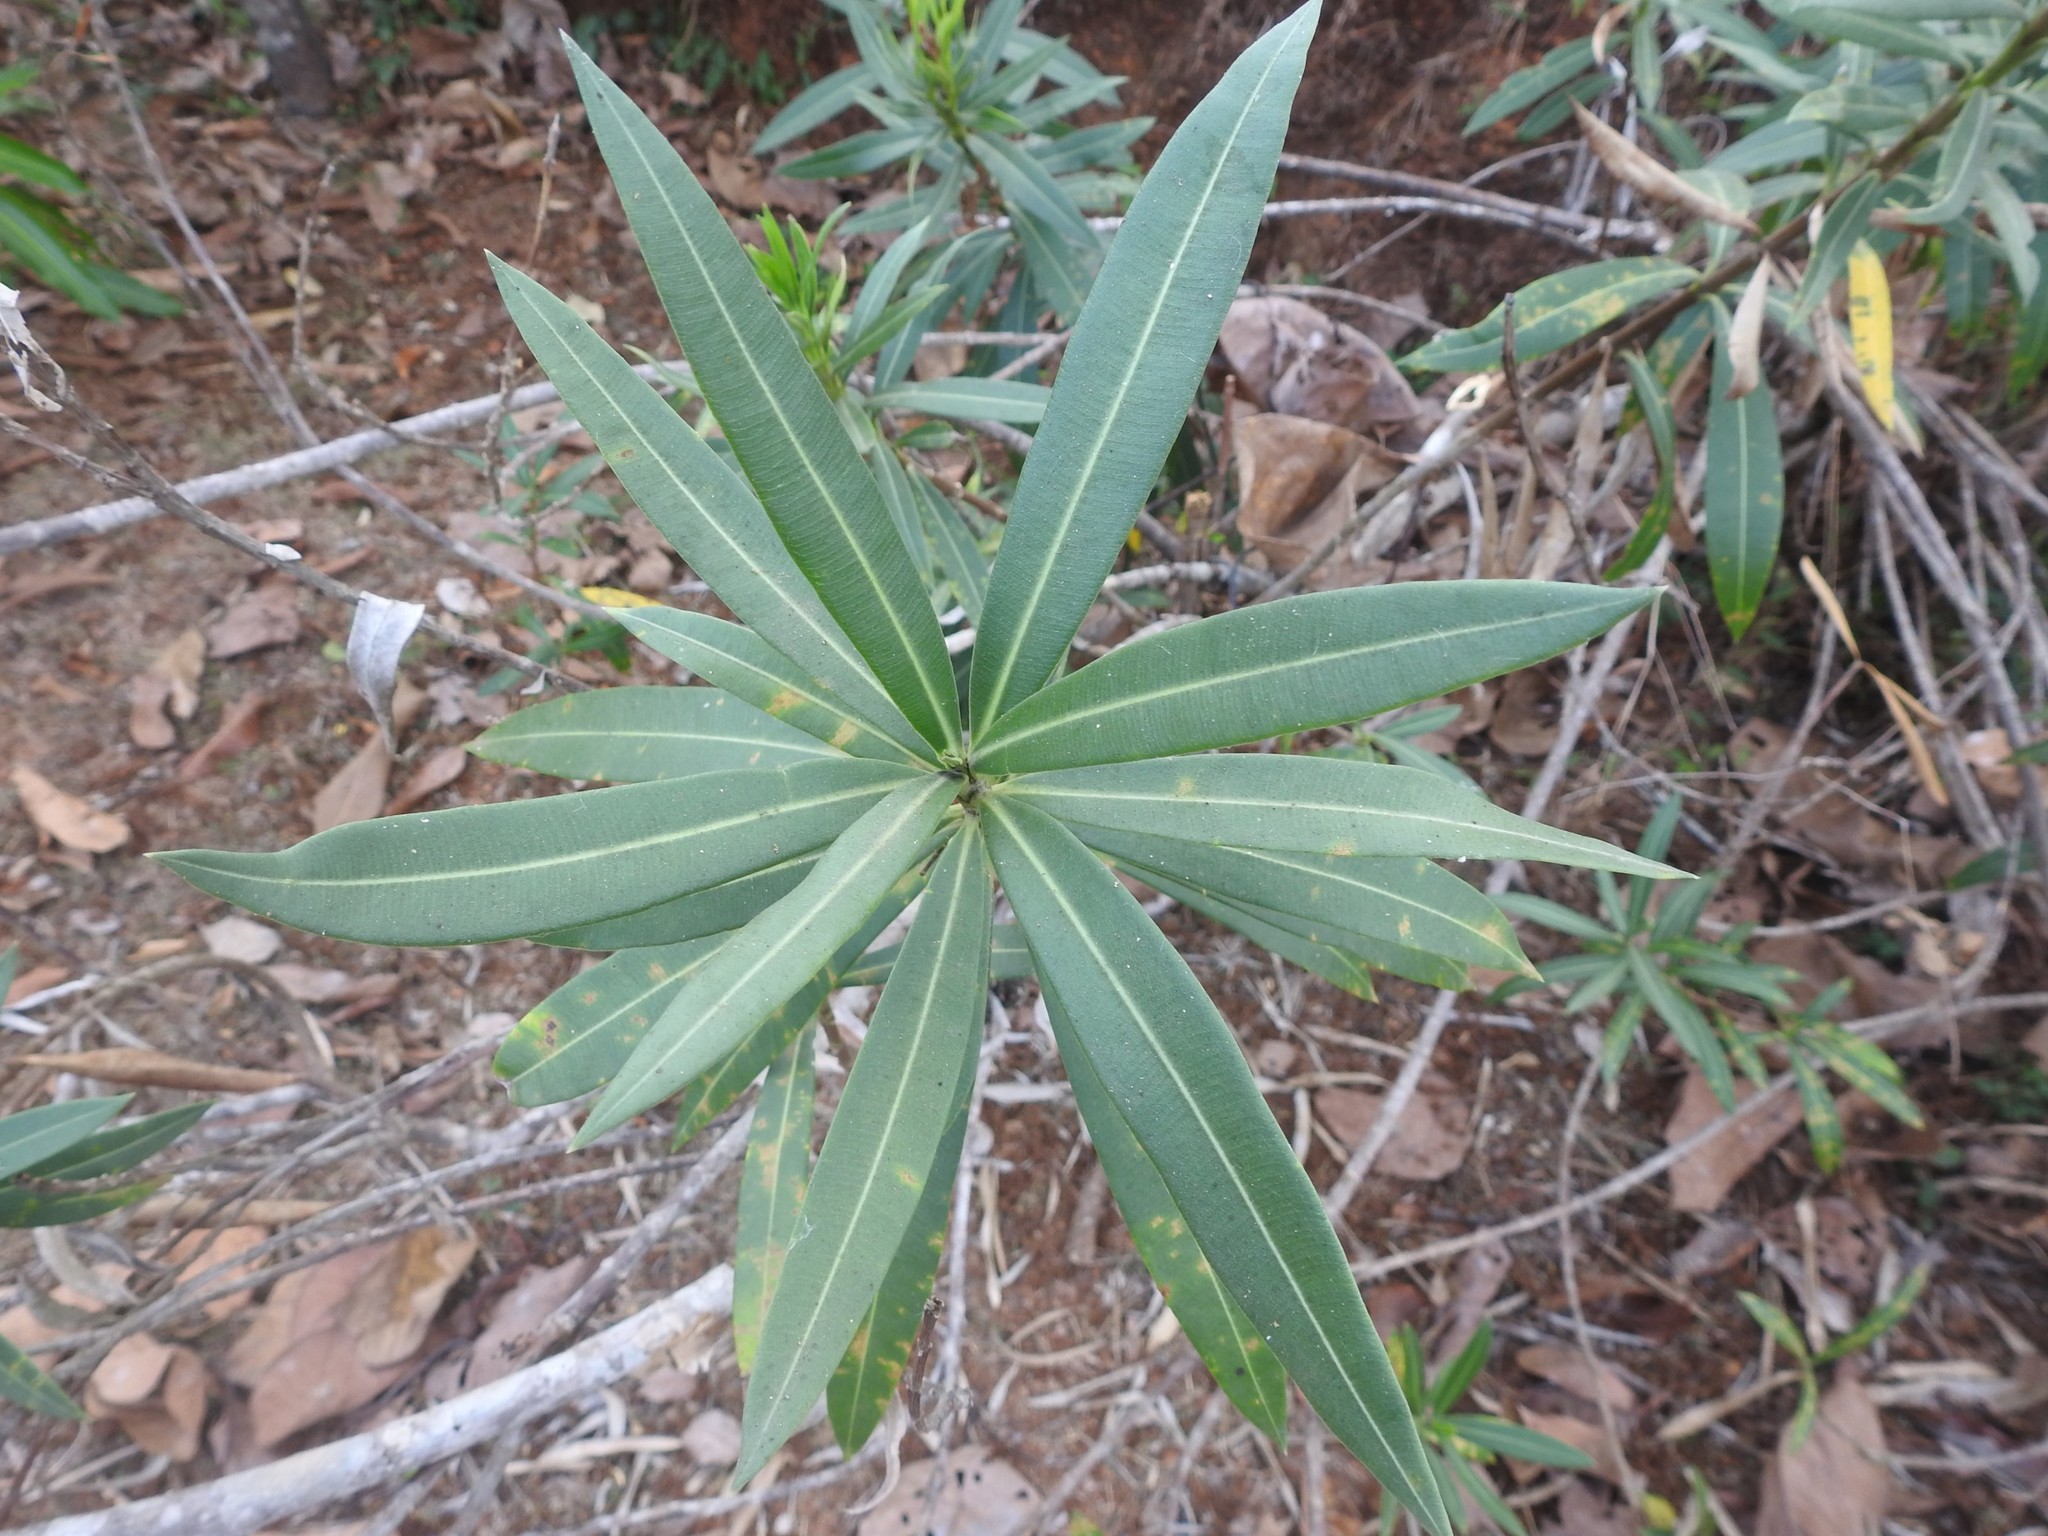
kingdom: Plantae
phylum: Tracheophyta
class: Magnoliopsida
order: Gentianales
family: Apocynaceae
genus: Nerium
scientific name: Nerium oleander
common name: Oleander
